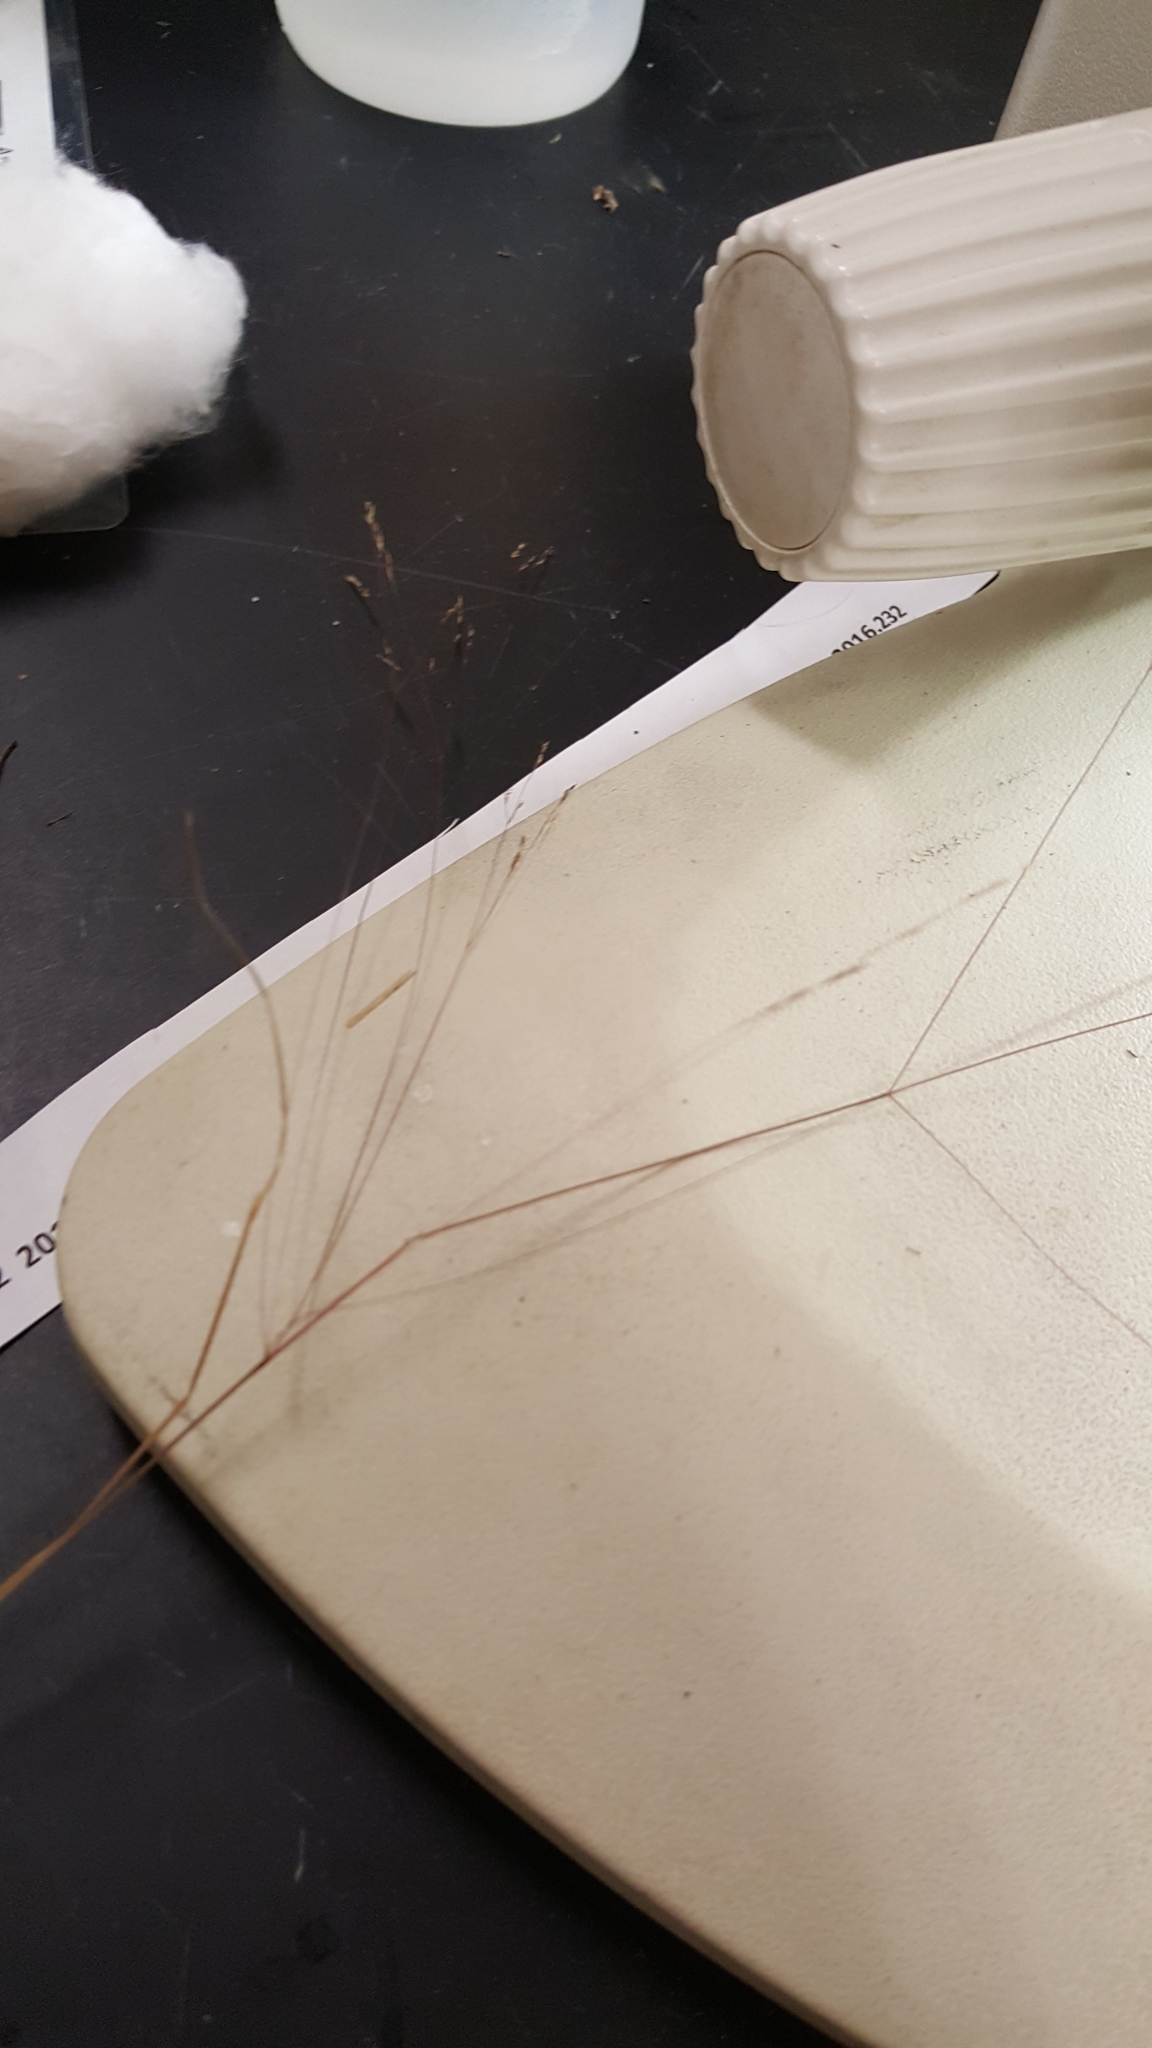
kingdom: Plantae
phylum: Tracheophyta
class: Liliopsida
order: Poales
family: Poaceae
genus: Agrostis
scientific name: Agrostis scabra
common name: Rough bent
